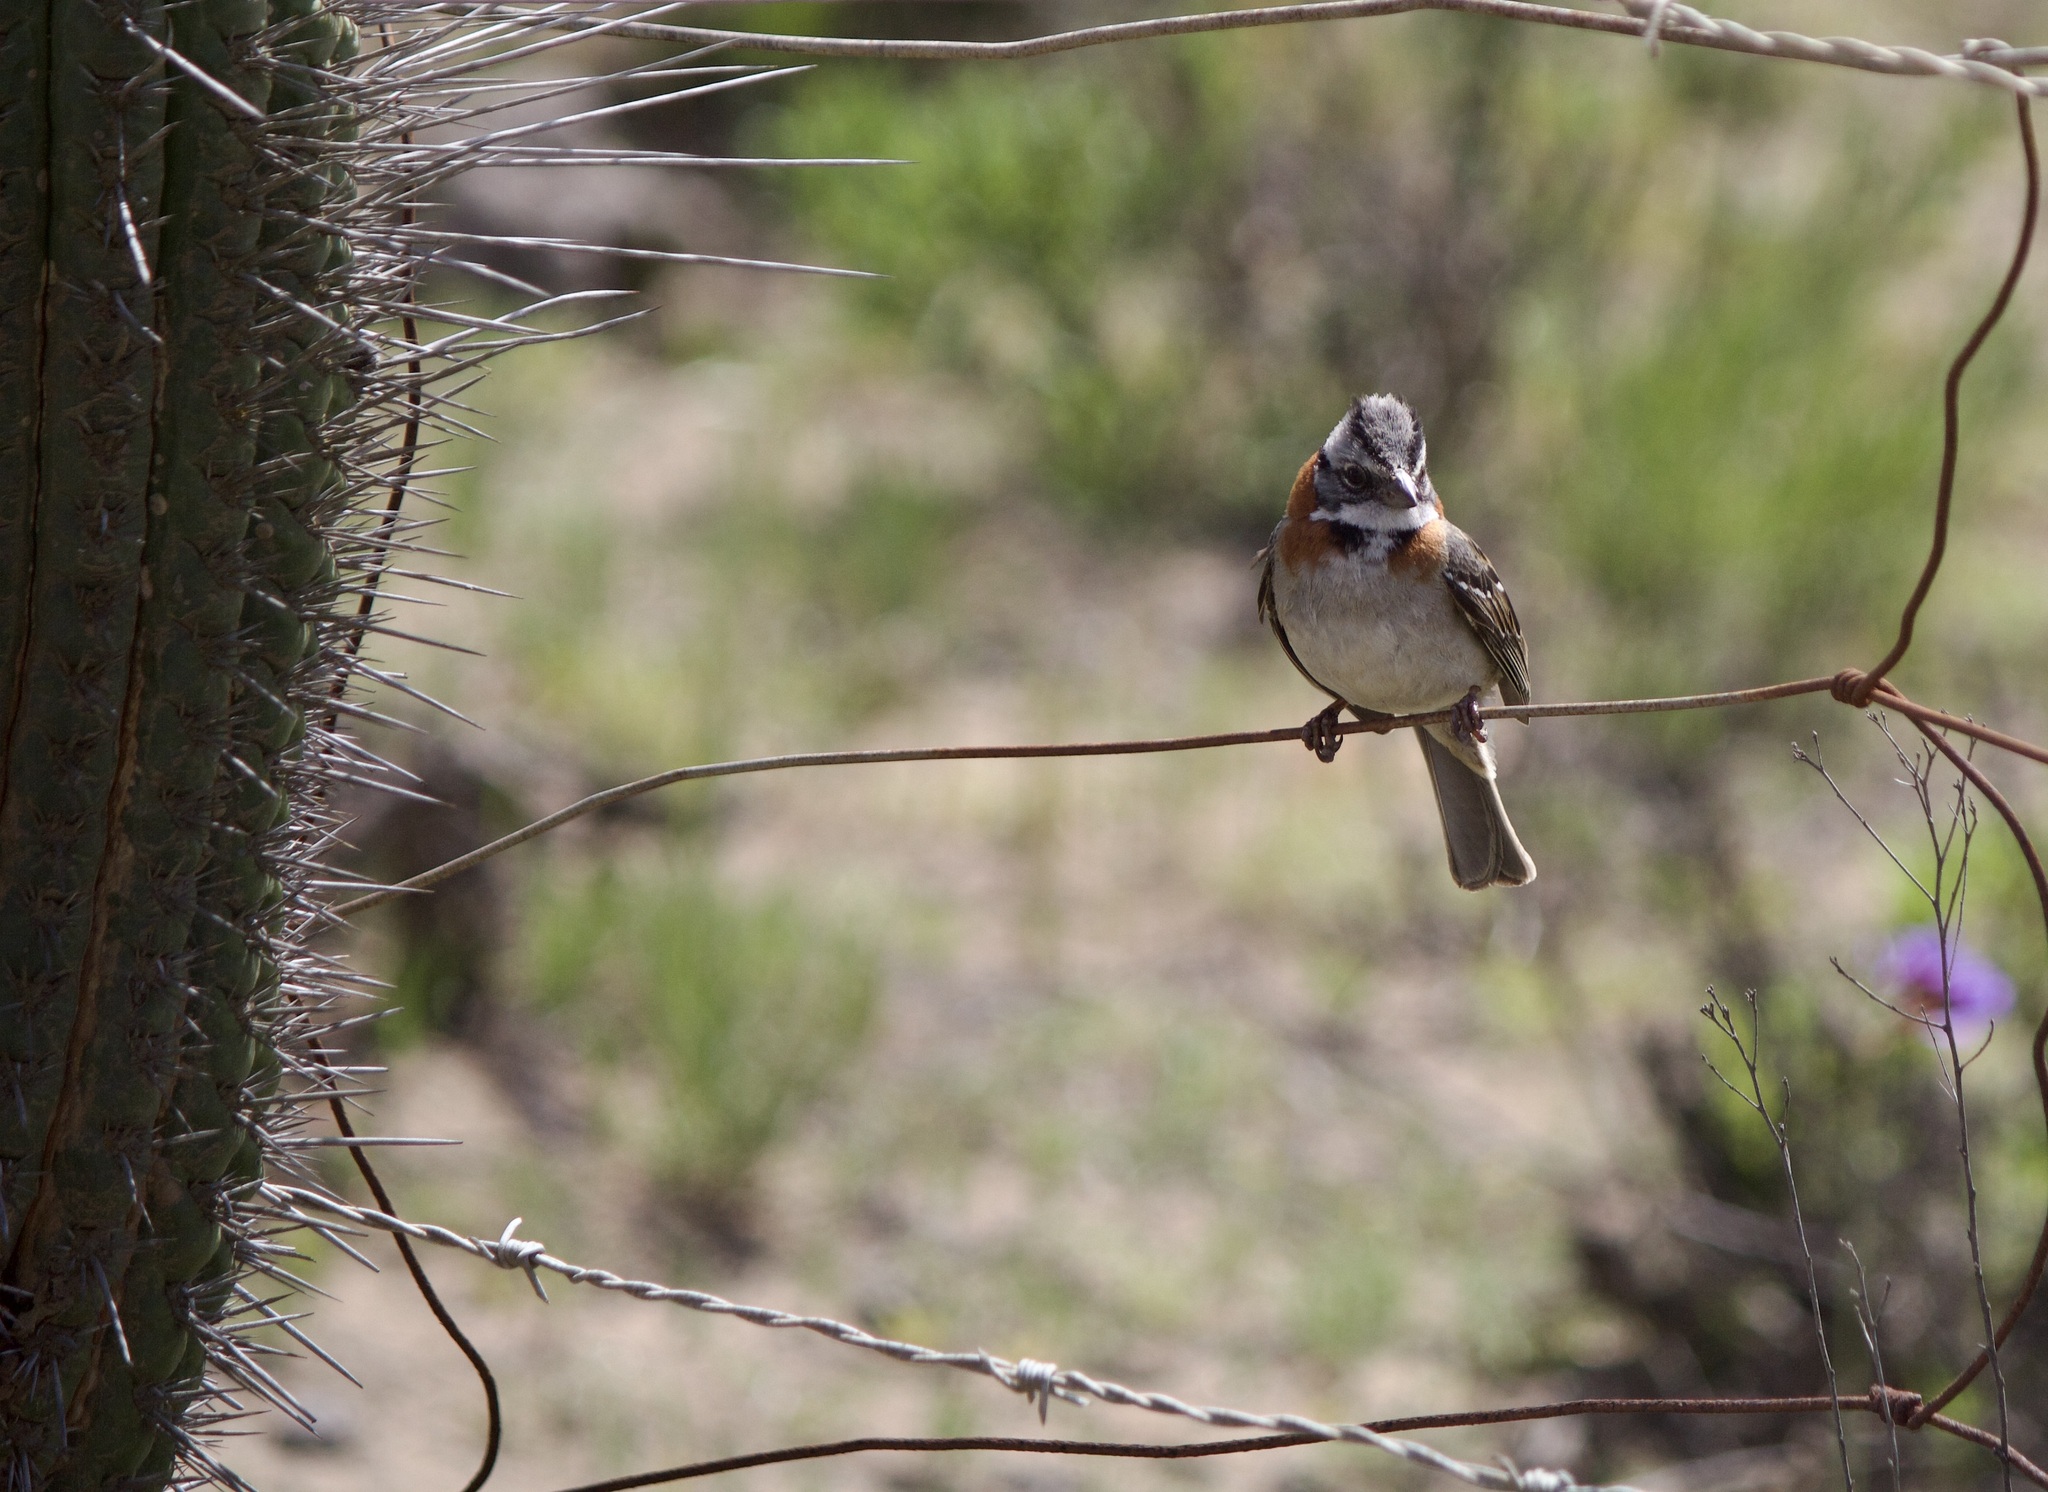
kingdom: Animalia
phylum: Chordata
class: Aves
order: Passeriformes
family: Passerellidae
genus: Zonotrichia
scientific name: Zonotrichia capensis
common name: Rufous-collared sparrow
